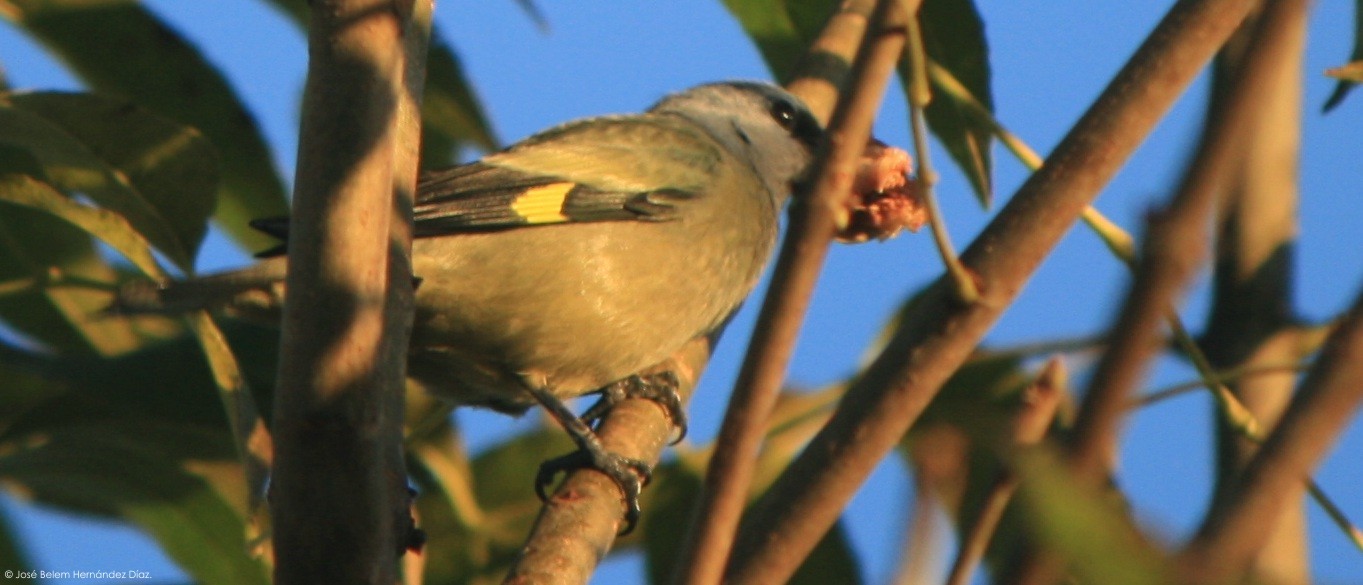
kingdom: Animalia
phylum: Chordata
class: Aves
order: Passeriformes
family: Thraupidae
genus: Thraupis
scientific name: Thraupis abbas
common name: Yellow-winged tanager
